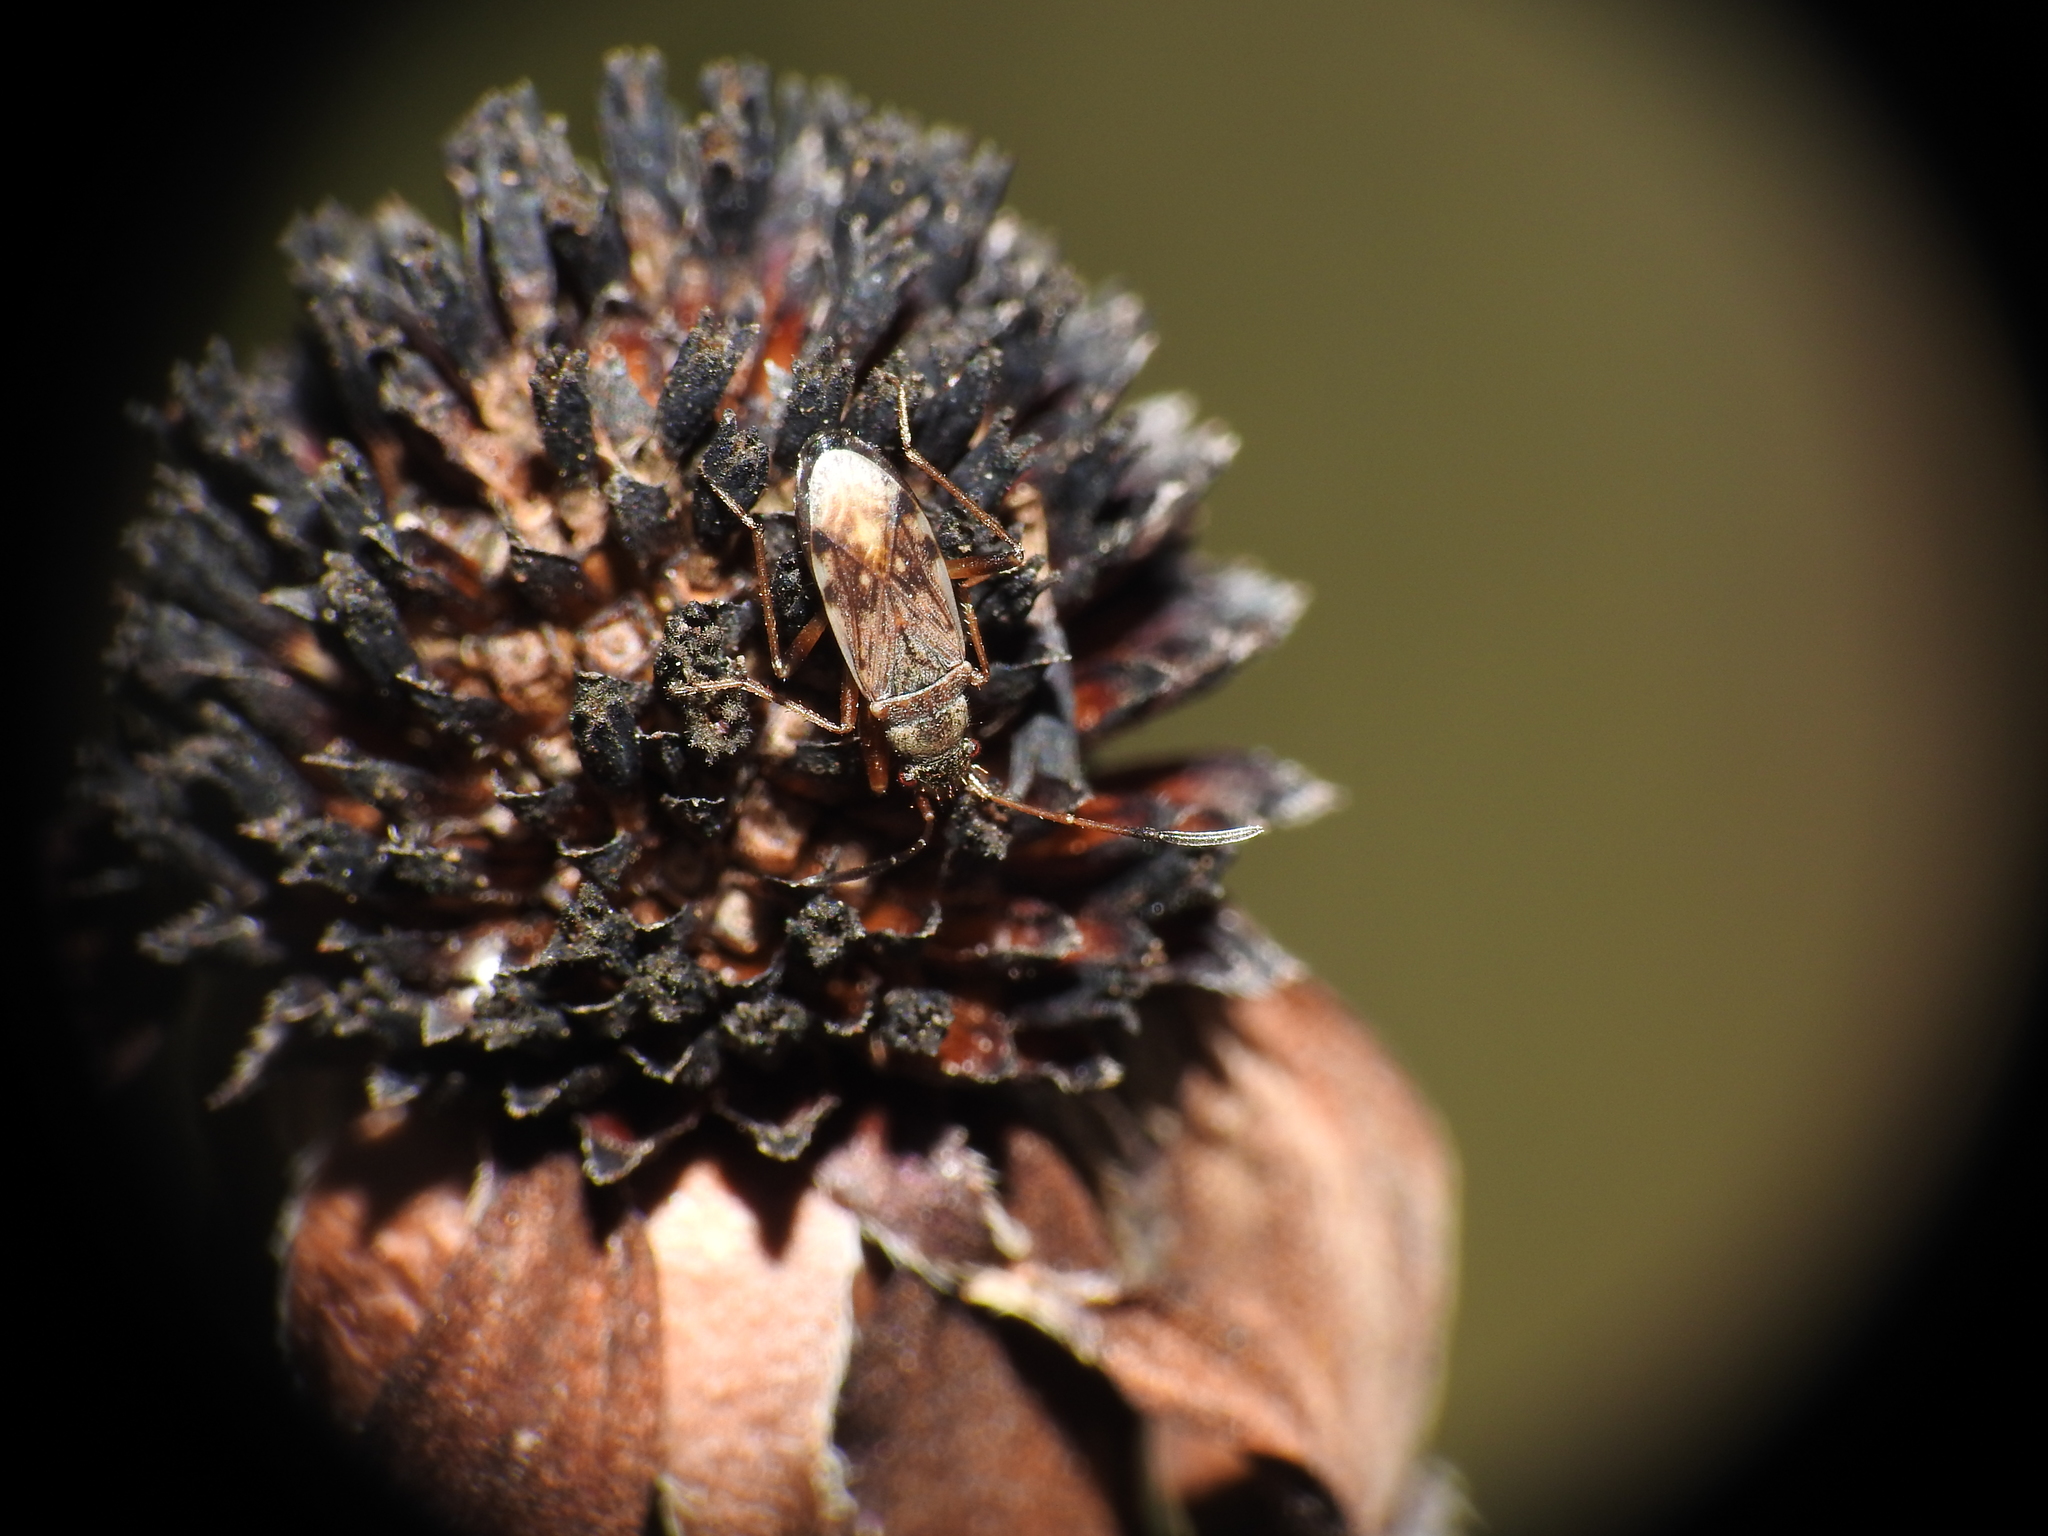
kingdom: Animalia
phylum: Arthropoda
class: Insecta
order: Hemiptera
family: Rhyparochromidae
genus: Ligyrocoris
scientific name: Ligyrocoris diffusus
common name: Diffused seed bug
